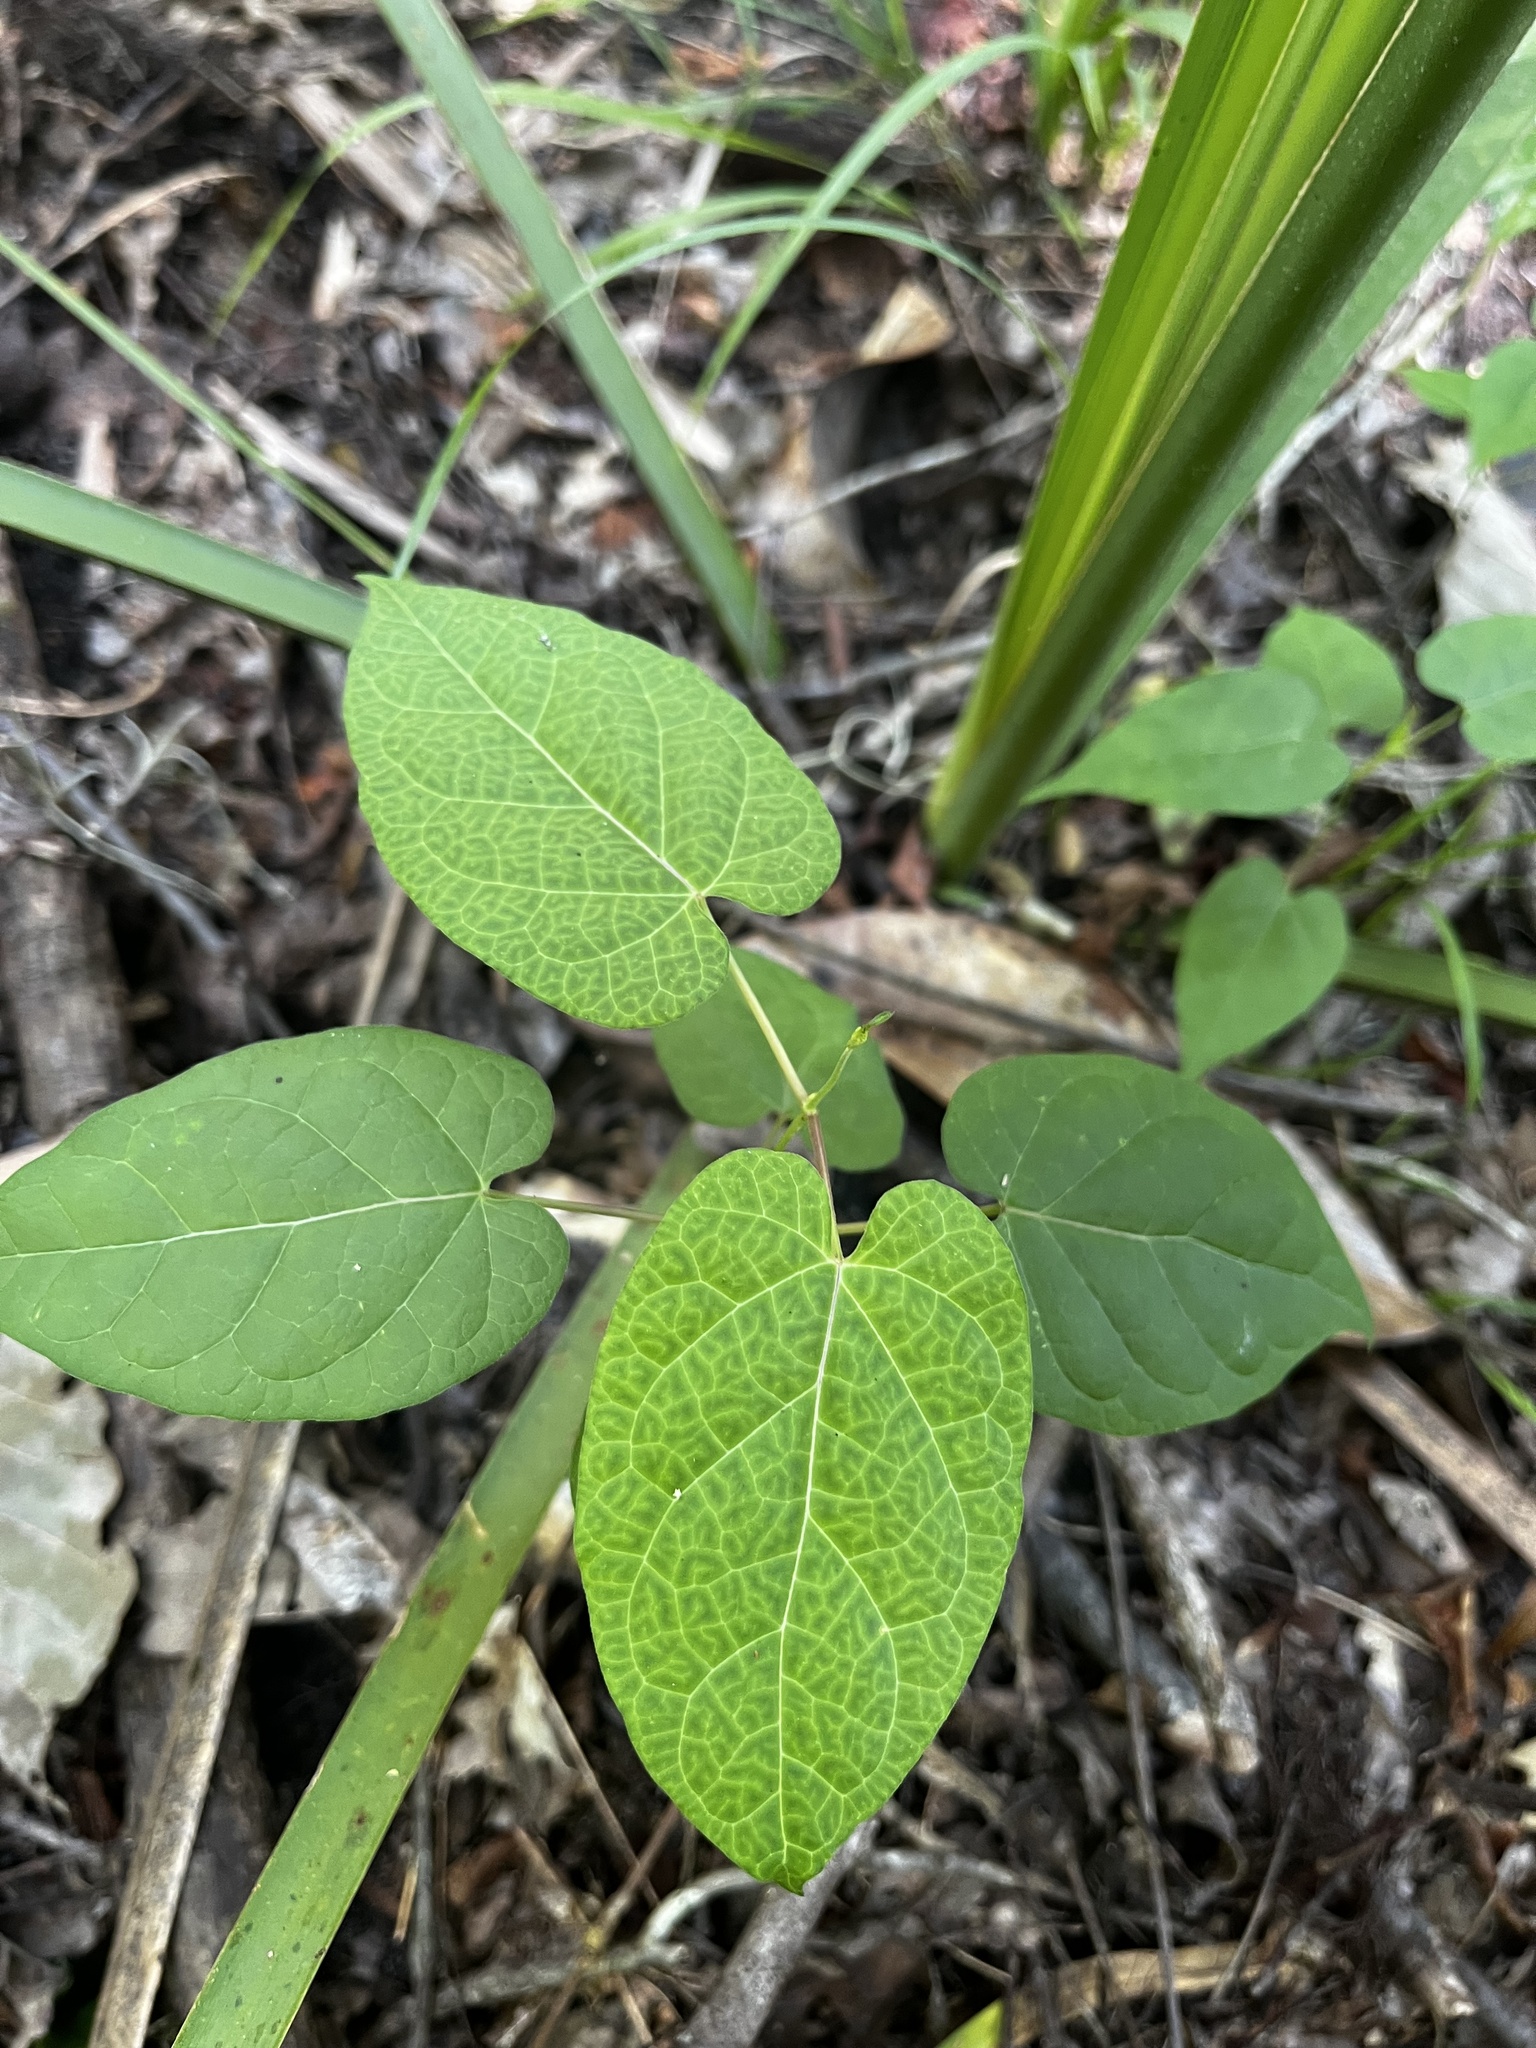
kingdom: Plantae
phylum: Tracheophyta
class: Magnoliopsida
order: Gentianales
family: Apocynaceae
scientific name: Apocynaceae
